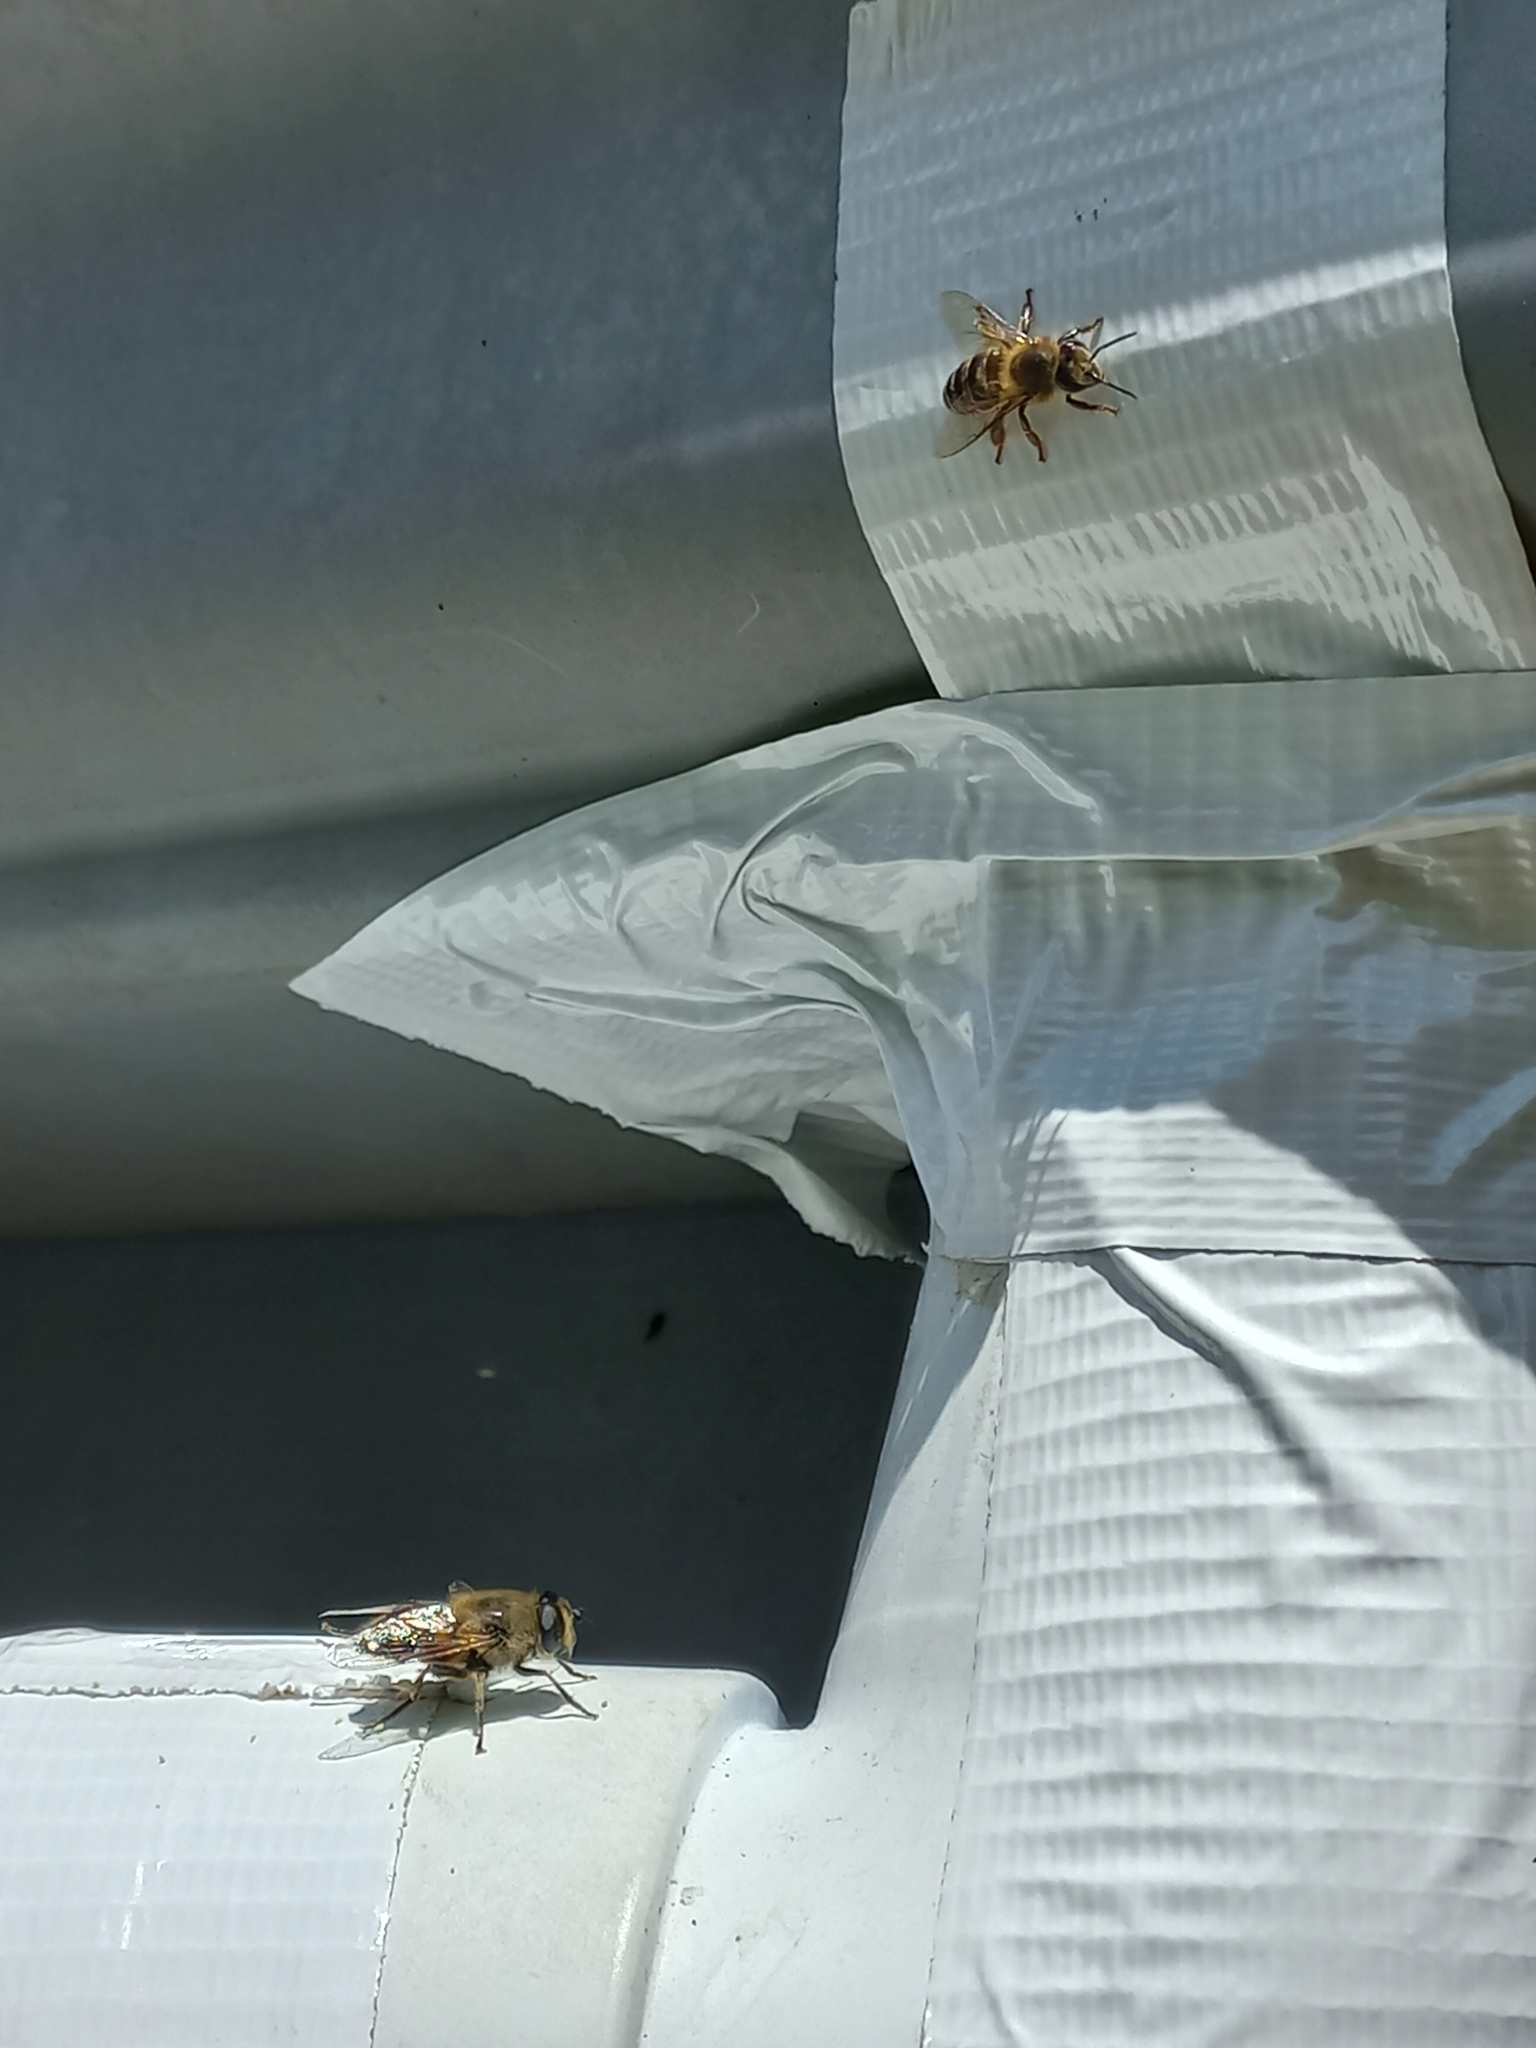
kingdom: Animalia
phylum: Arthropoda
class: Insecta
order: Diptera
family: Syrphidae
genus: Eristalis
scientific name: Eristalis tenax
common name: Drone fly
